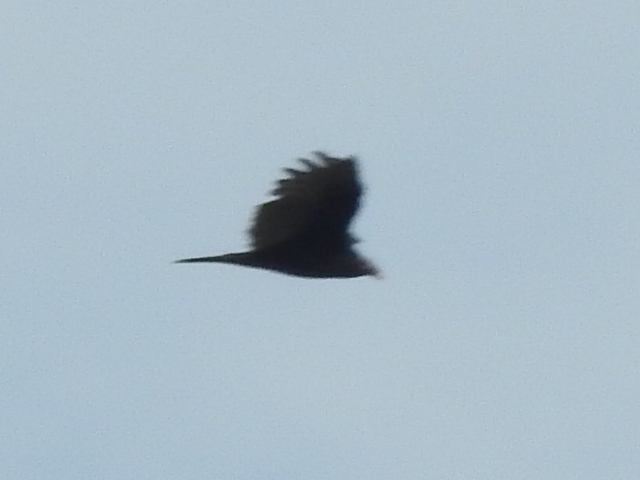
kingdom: Animalia
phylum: Chordata
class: Aves
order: Accipitriformes
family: Cathartidae
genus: Cathartes
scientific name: Cathartes aura
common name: Turkey vulture
